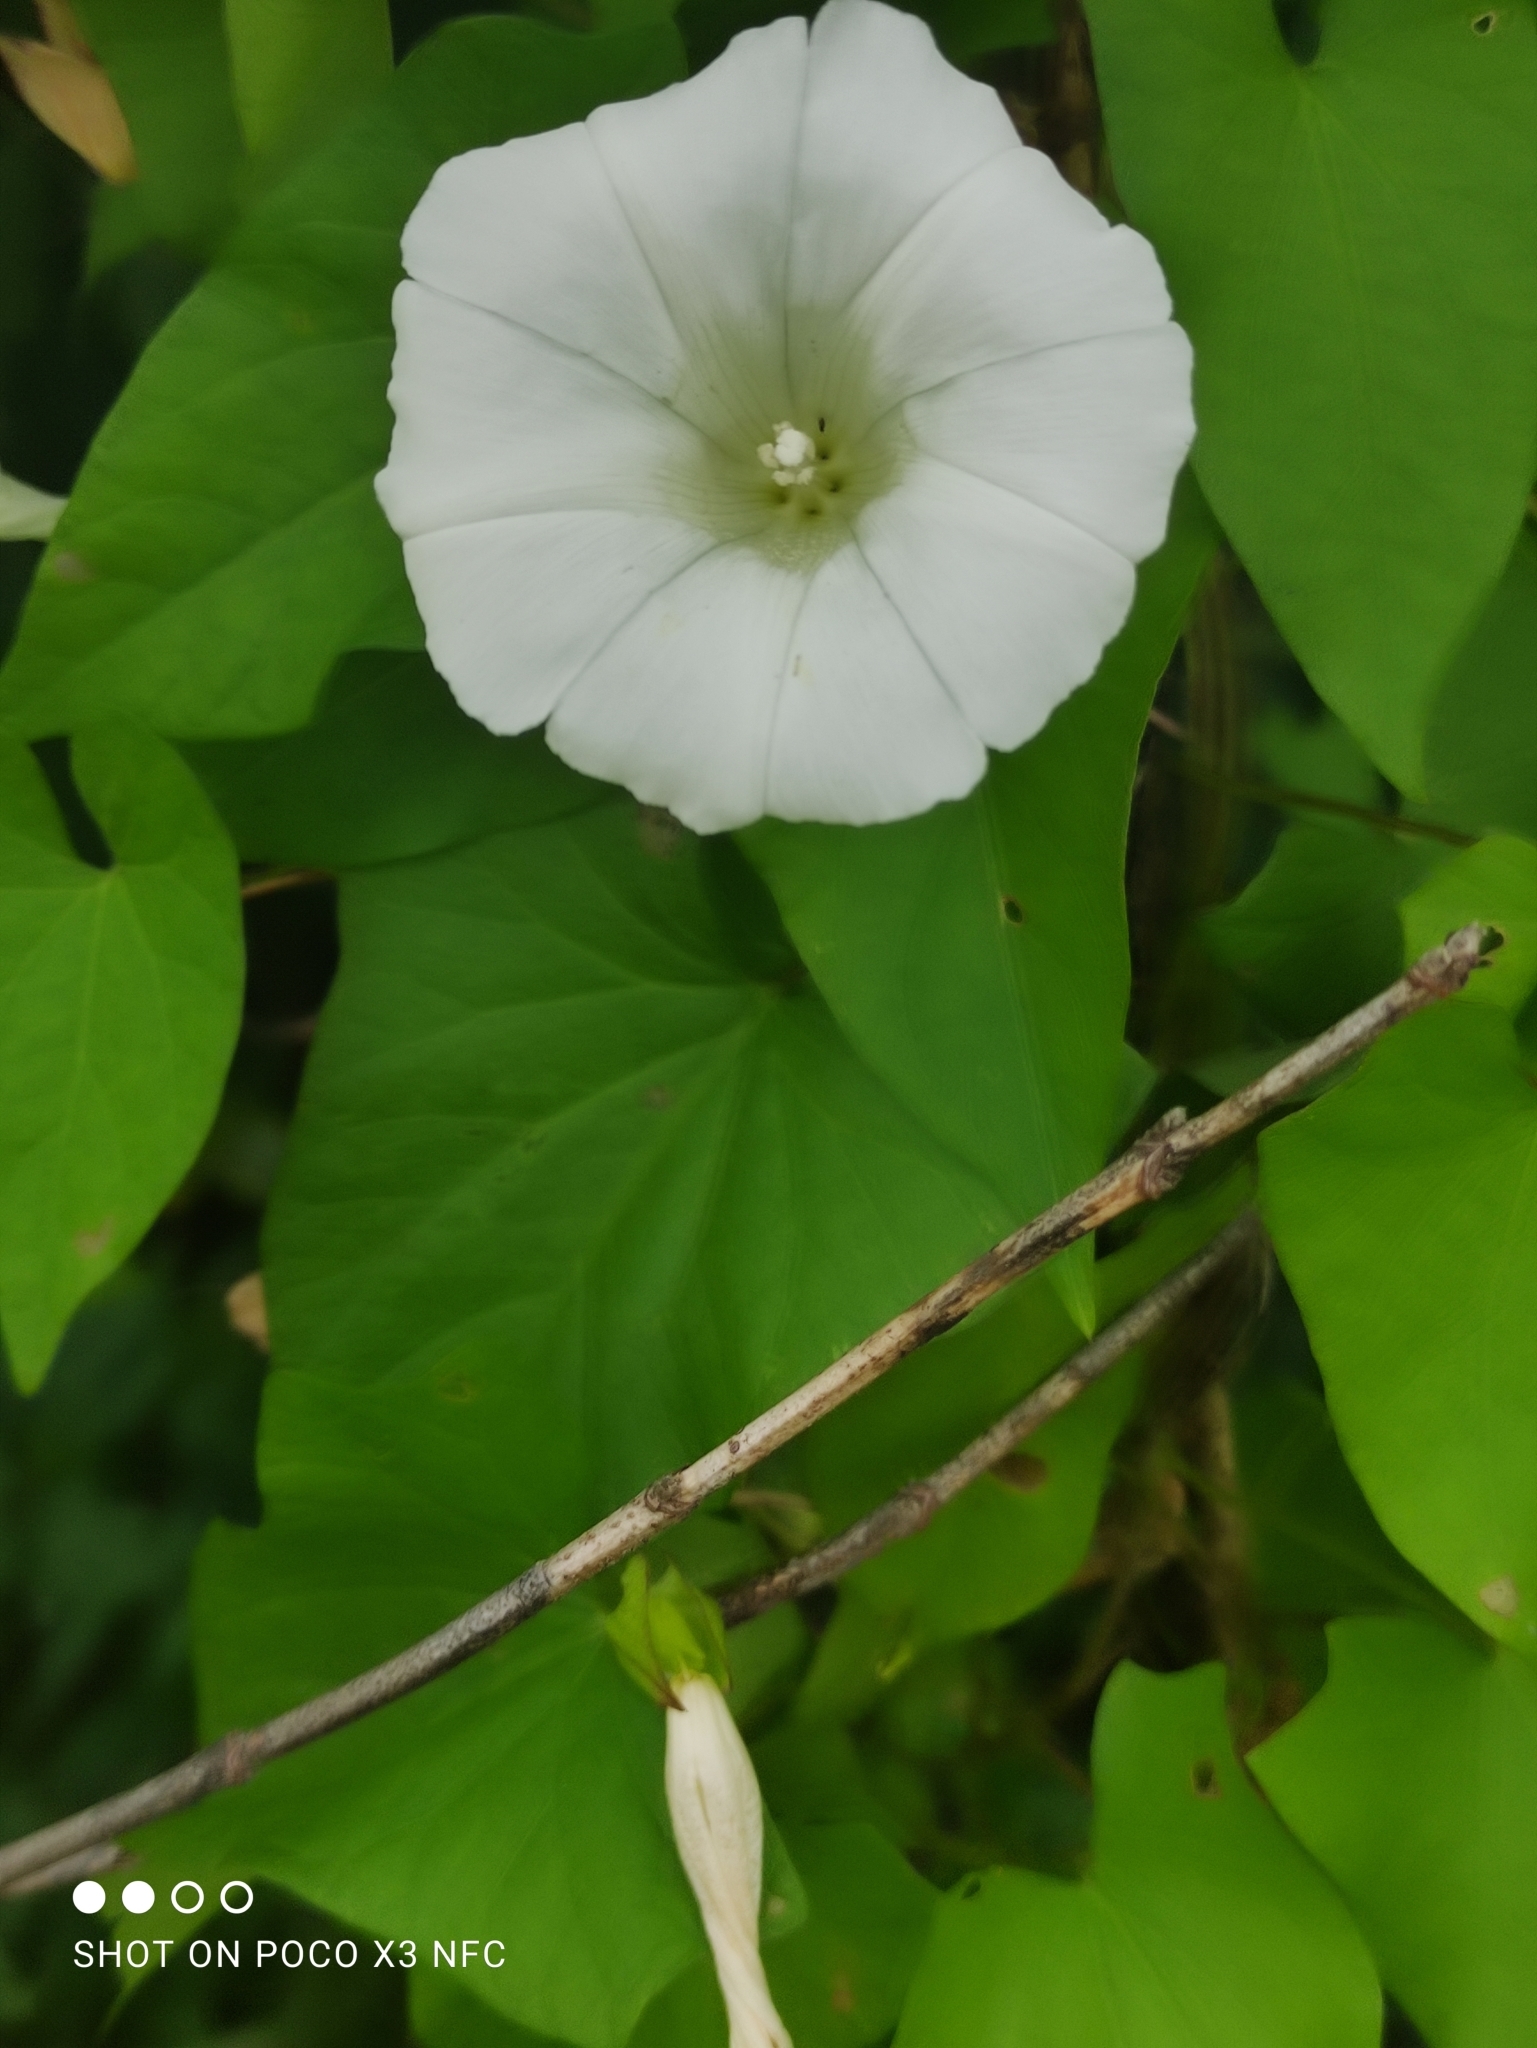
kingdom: Plantae
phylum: Tracheophyta
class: Magnoliopsida
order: Solanales
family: Convolvulaceae
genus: Calystegia
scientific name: Calystegia sepium
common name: Hedge bindweed
